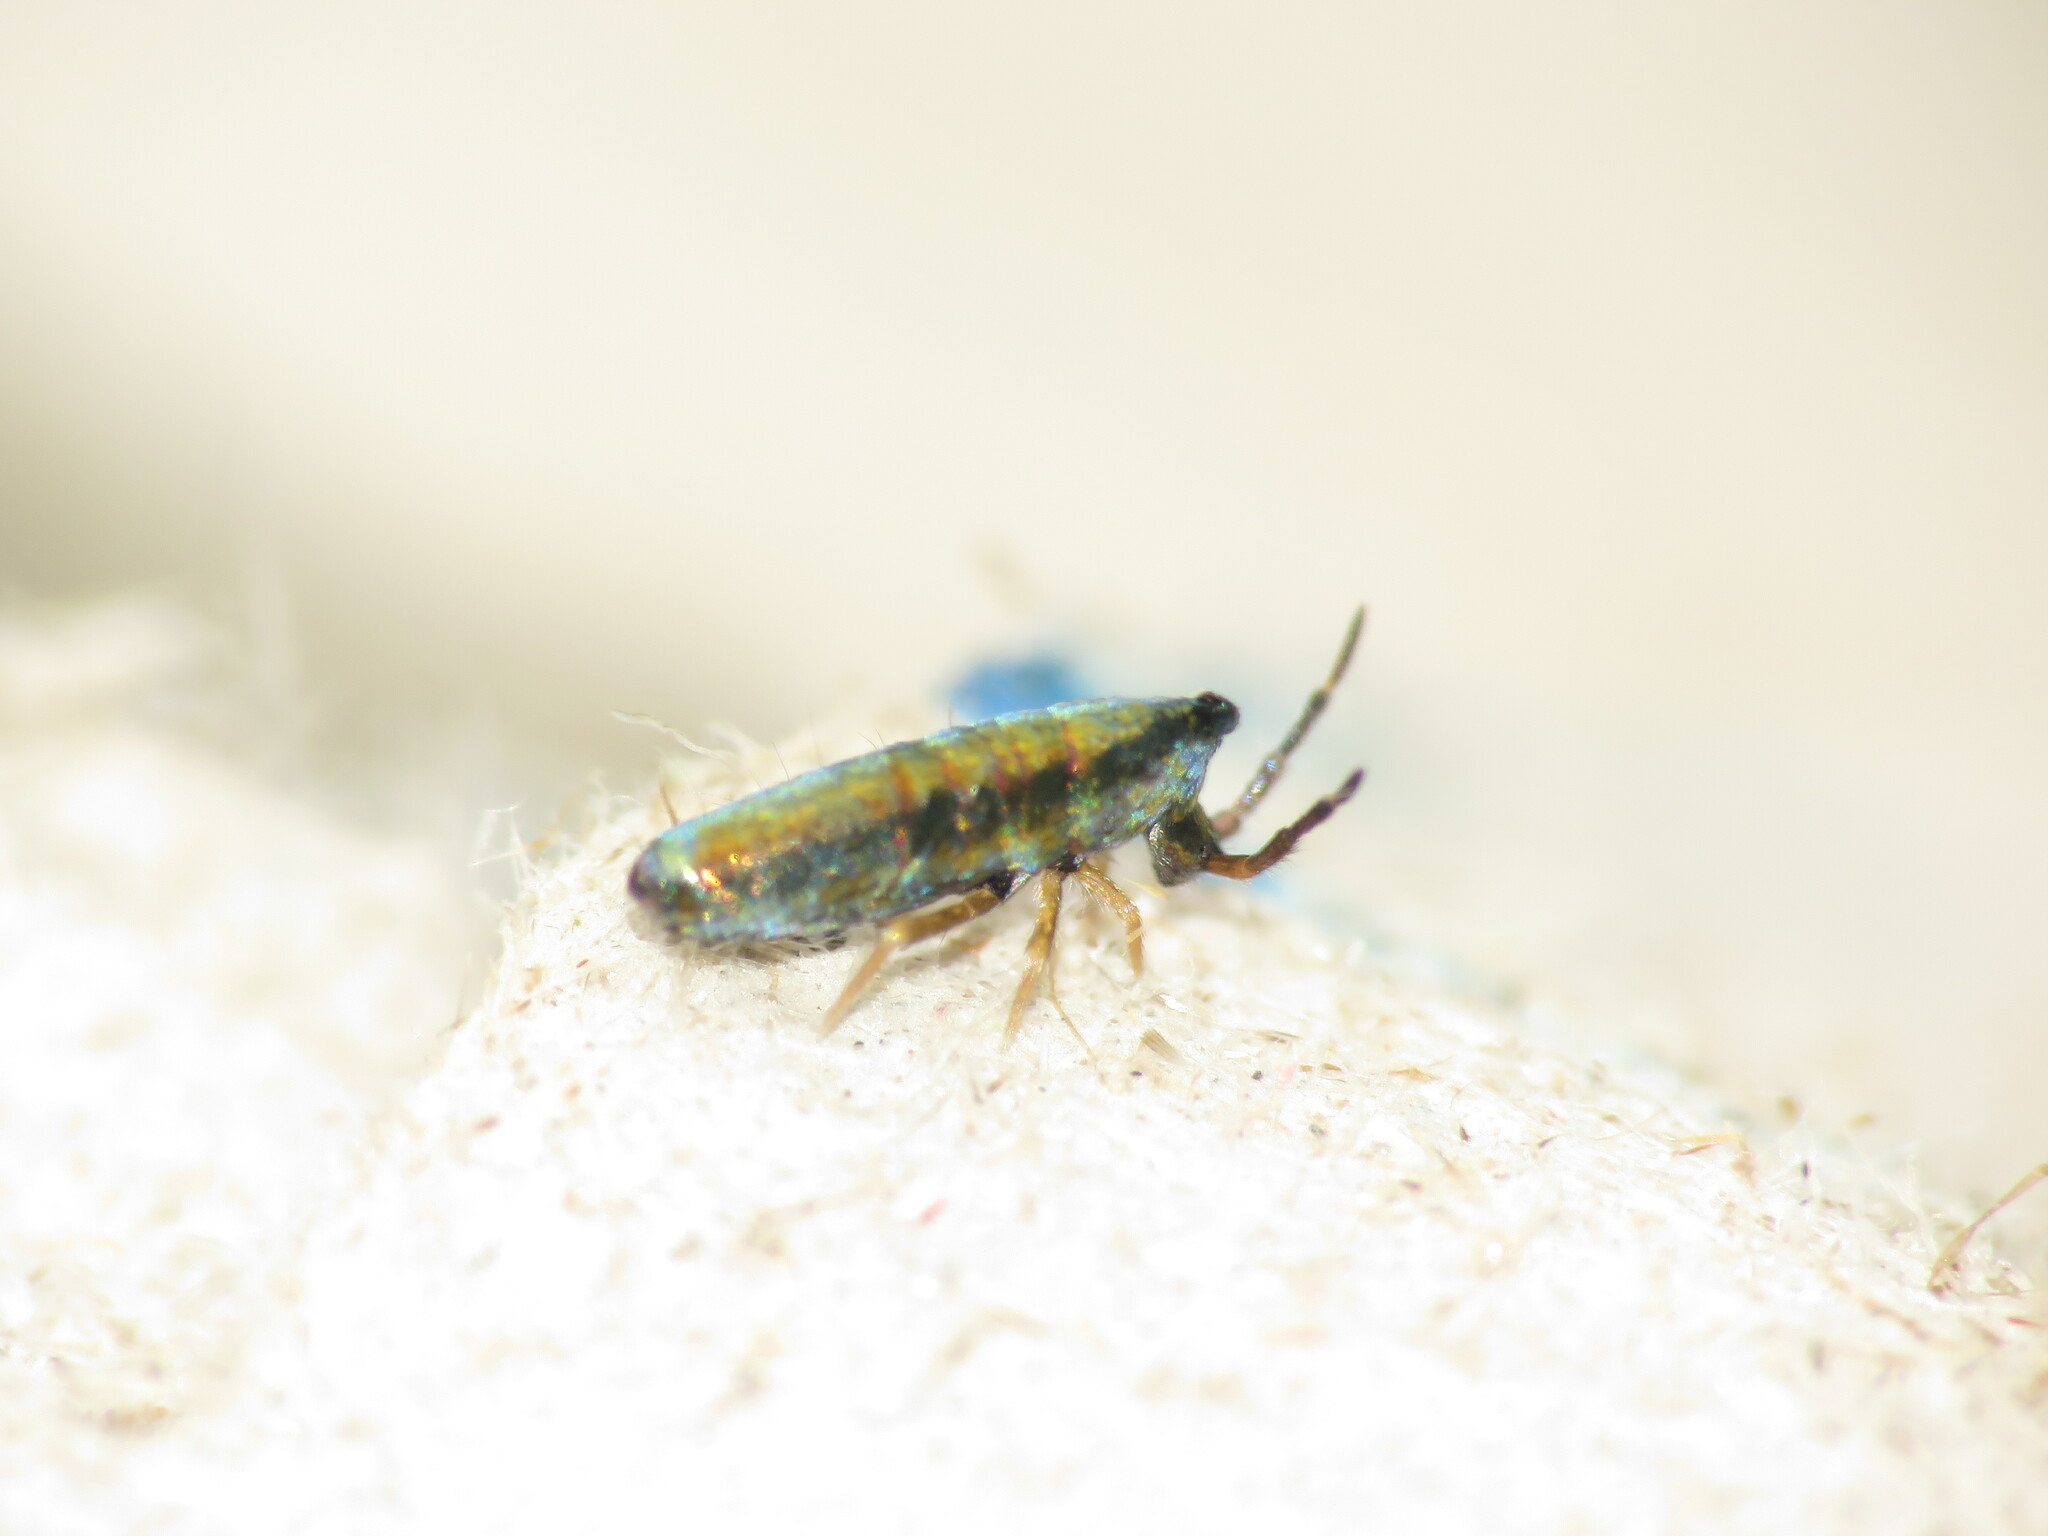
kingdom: Animalia
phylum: Arthropoda
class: Collembola
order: Entomobryomorpha
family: Entomobryidae
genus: Lepidocyrtus
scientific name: Lepidocyrtus paradoxus
